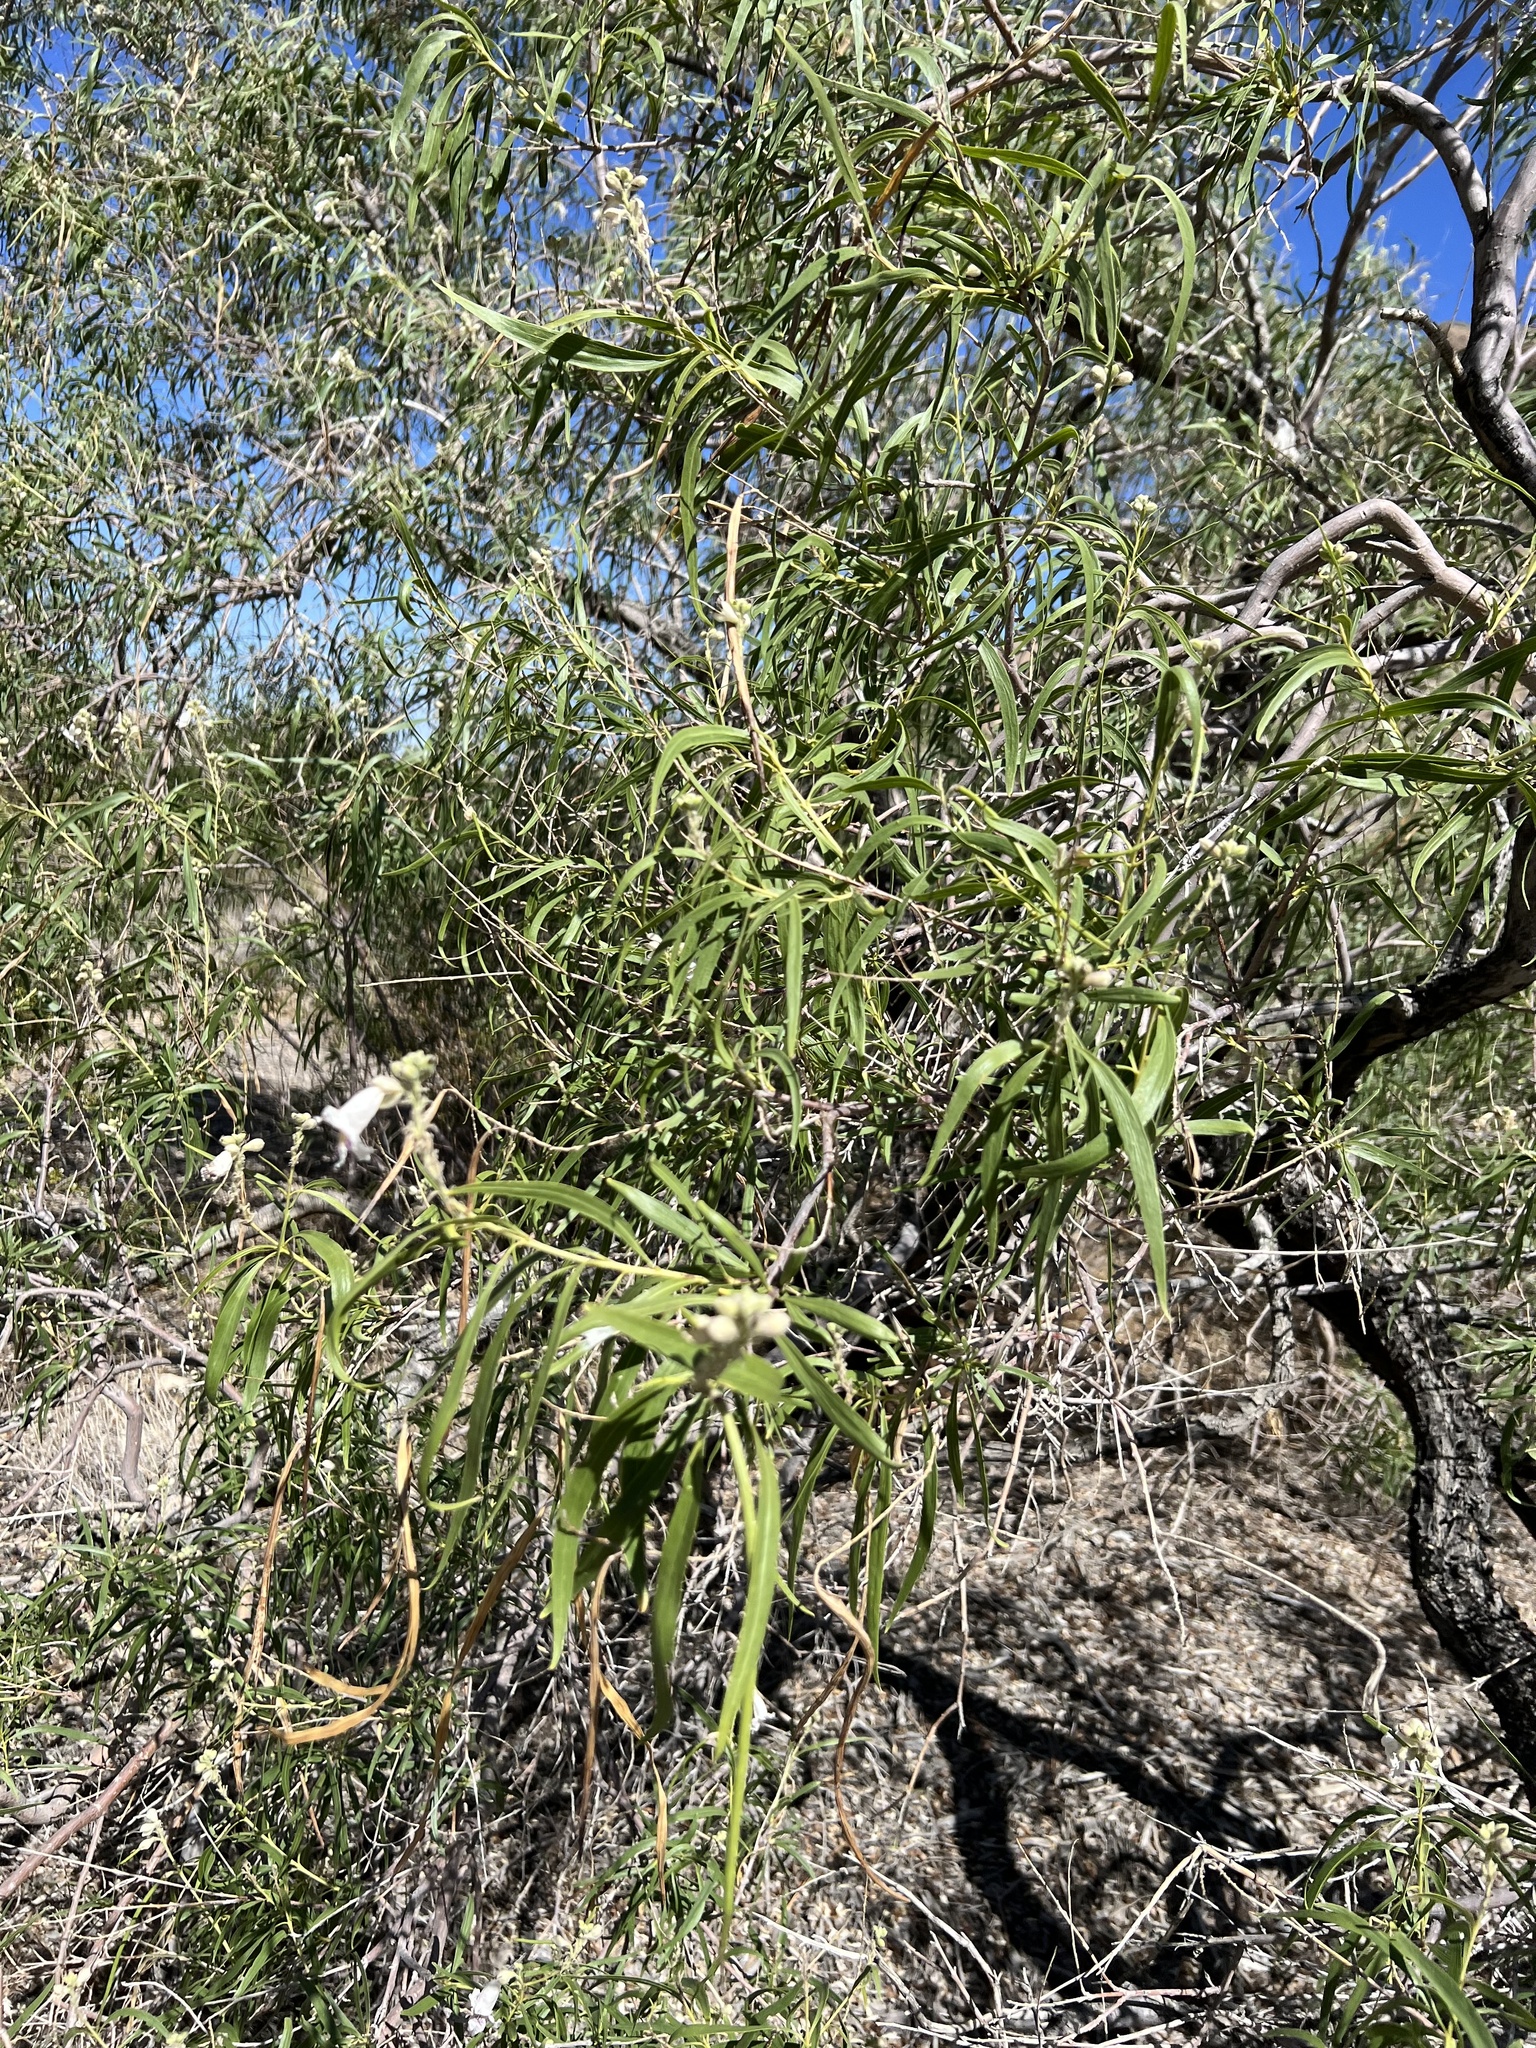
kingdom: Plantae
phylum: Tracheophyta
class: Magnoliopsida
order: Lamiales
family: Bignoniaceae
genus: Chilopsis
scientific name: Chilopsis linearis
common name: Desert-willow
